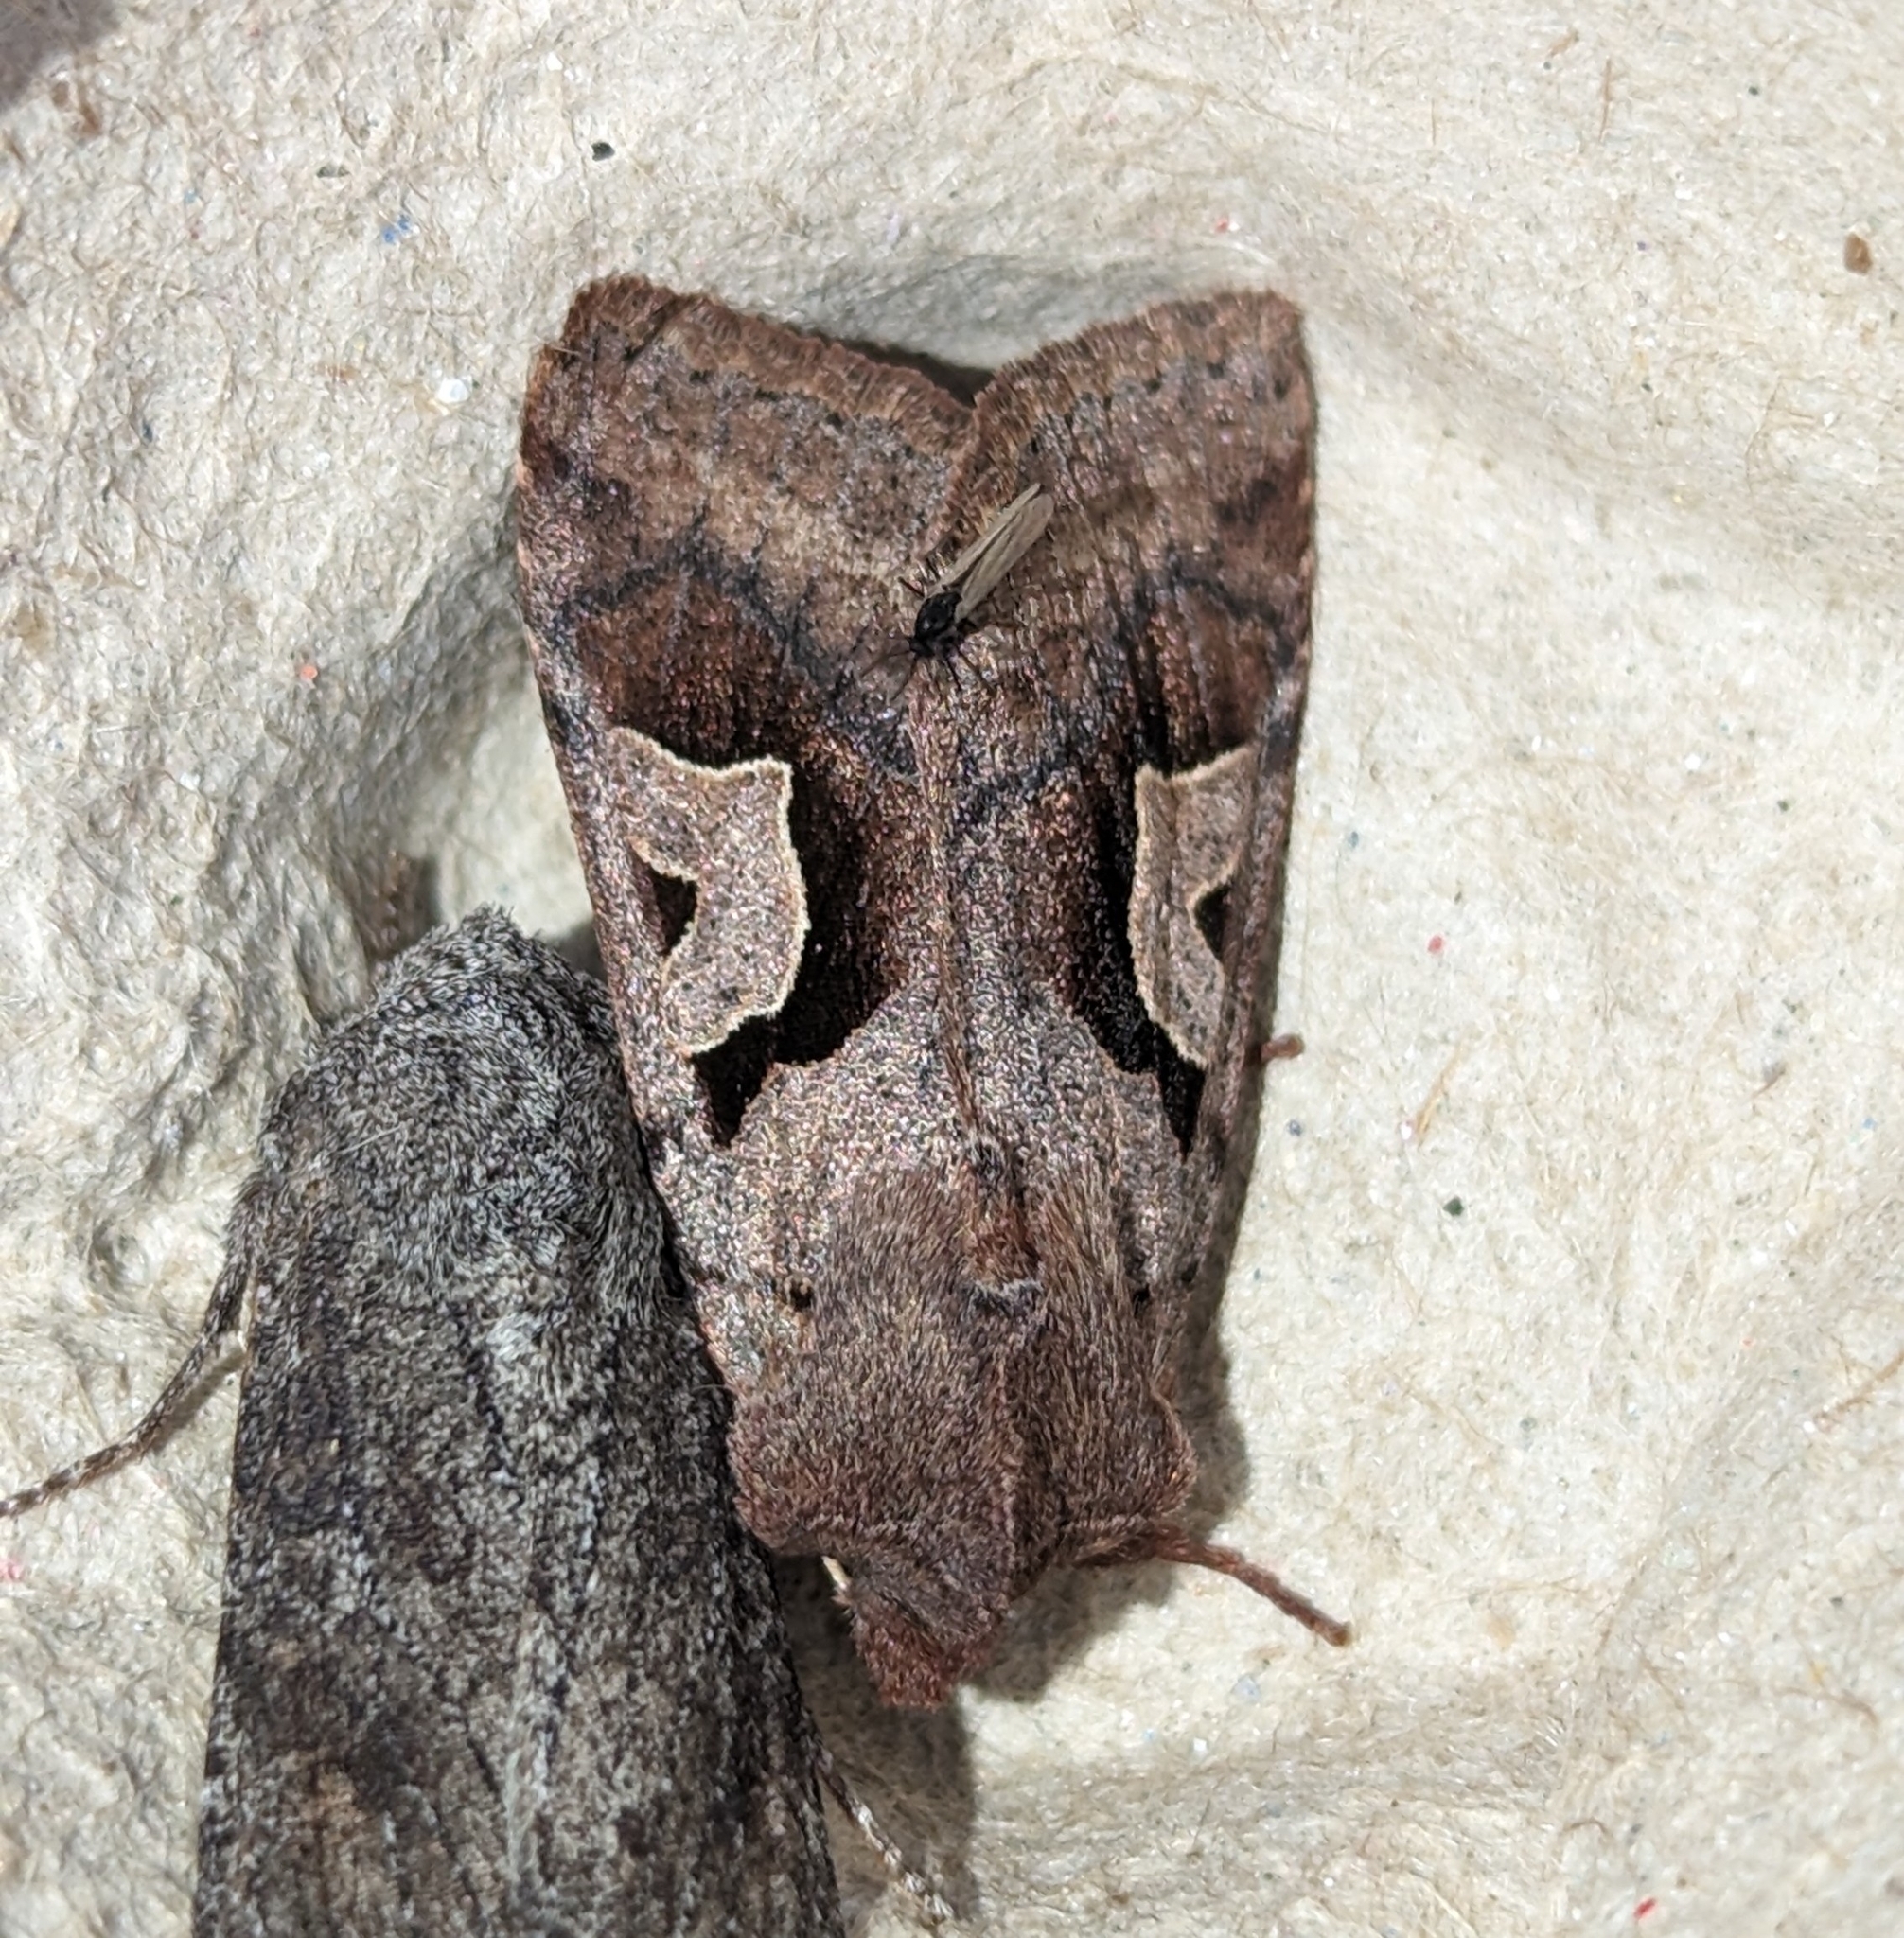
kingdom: Animalia
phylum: Arthropoda
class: Insecta
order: Lepidoptera
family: Noctuidae
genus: Acerra
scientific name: Acerra normalis
